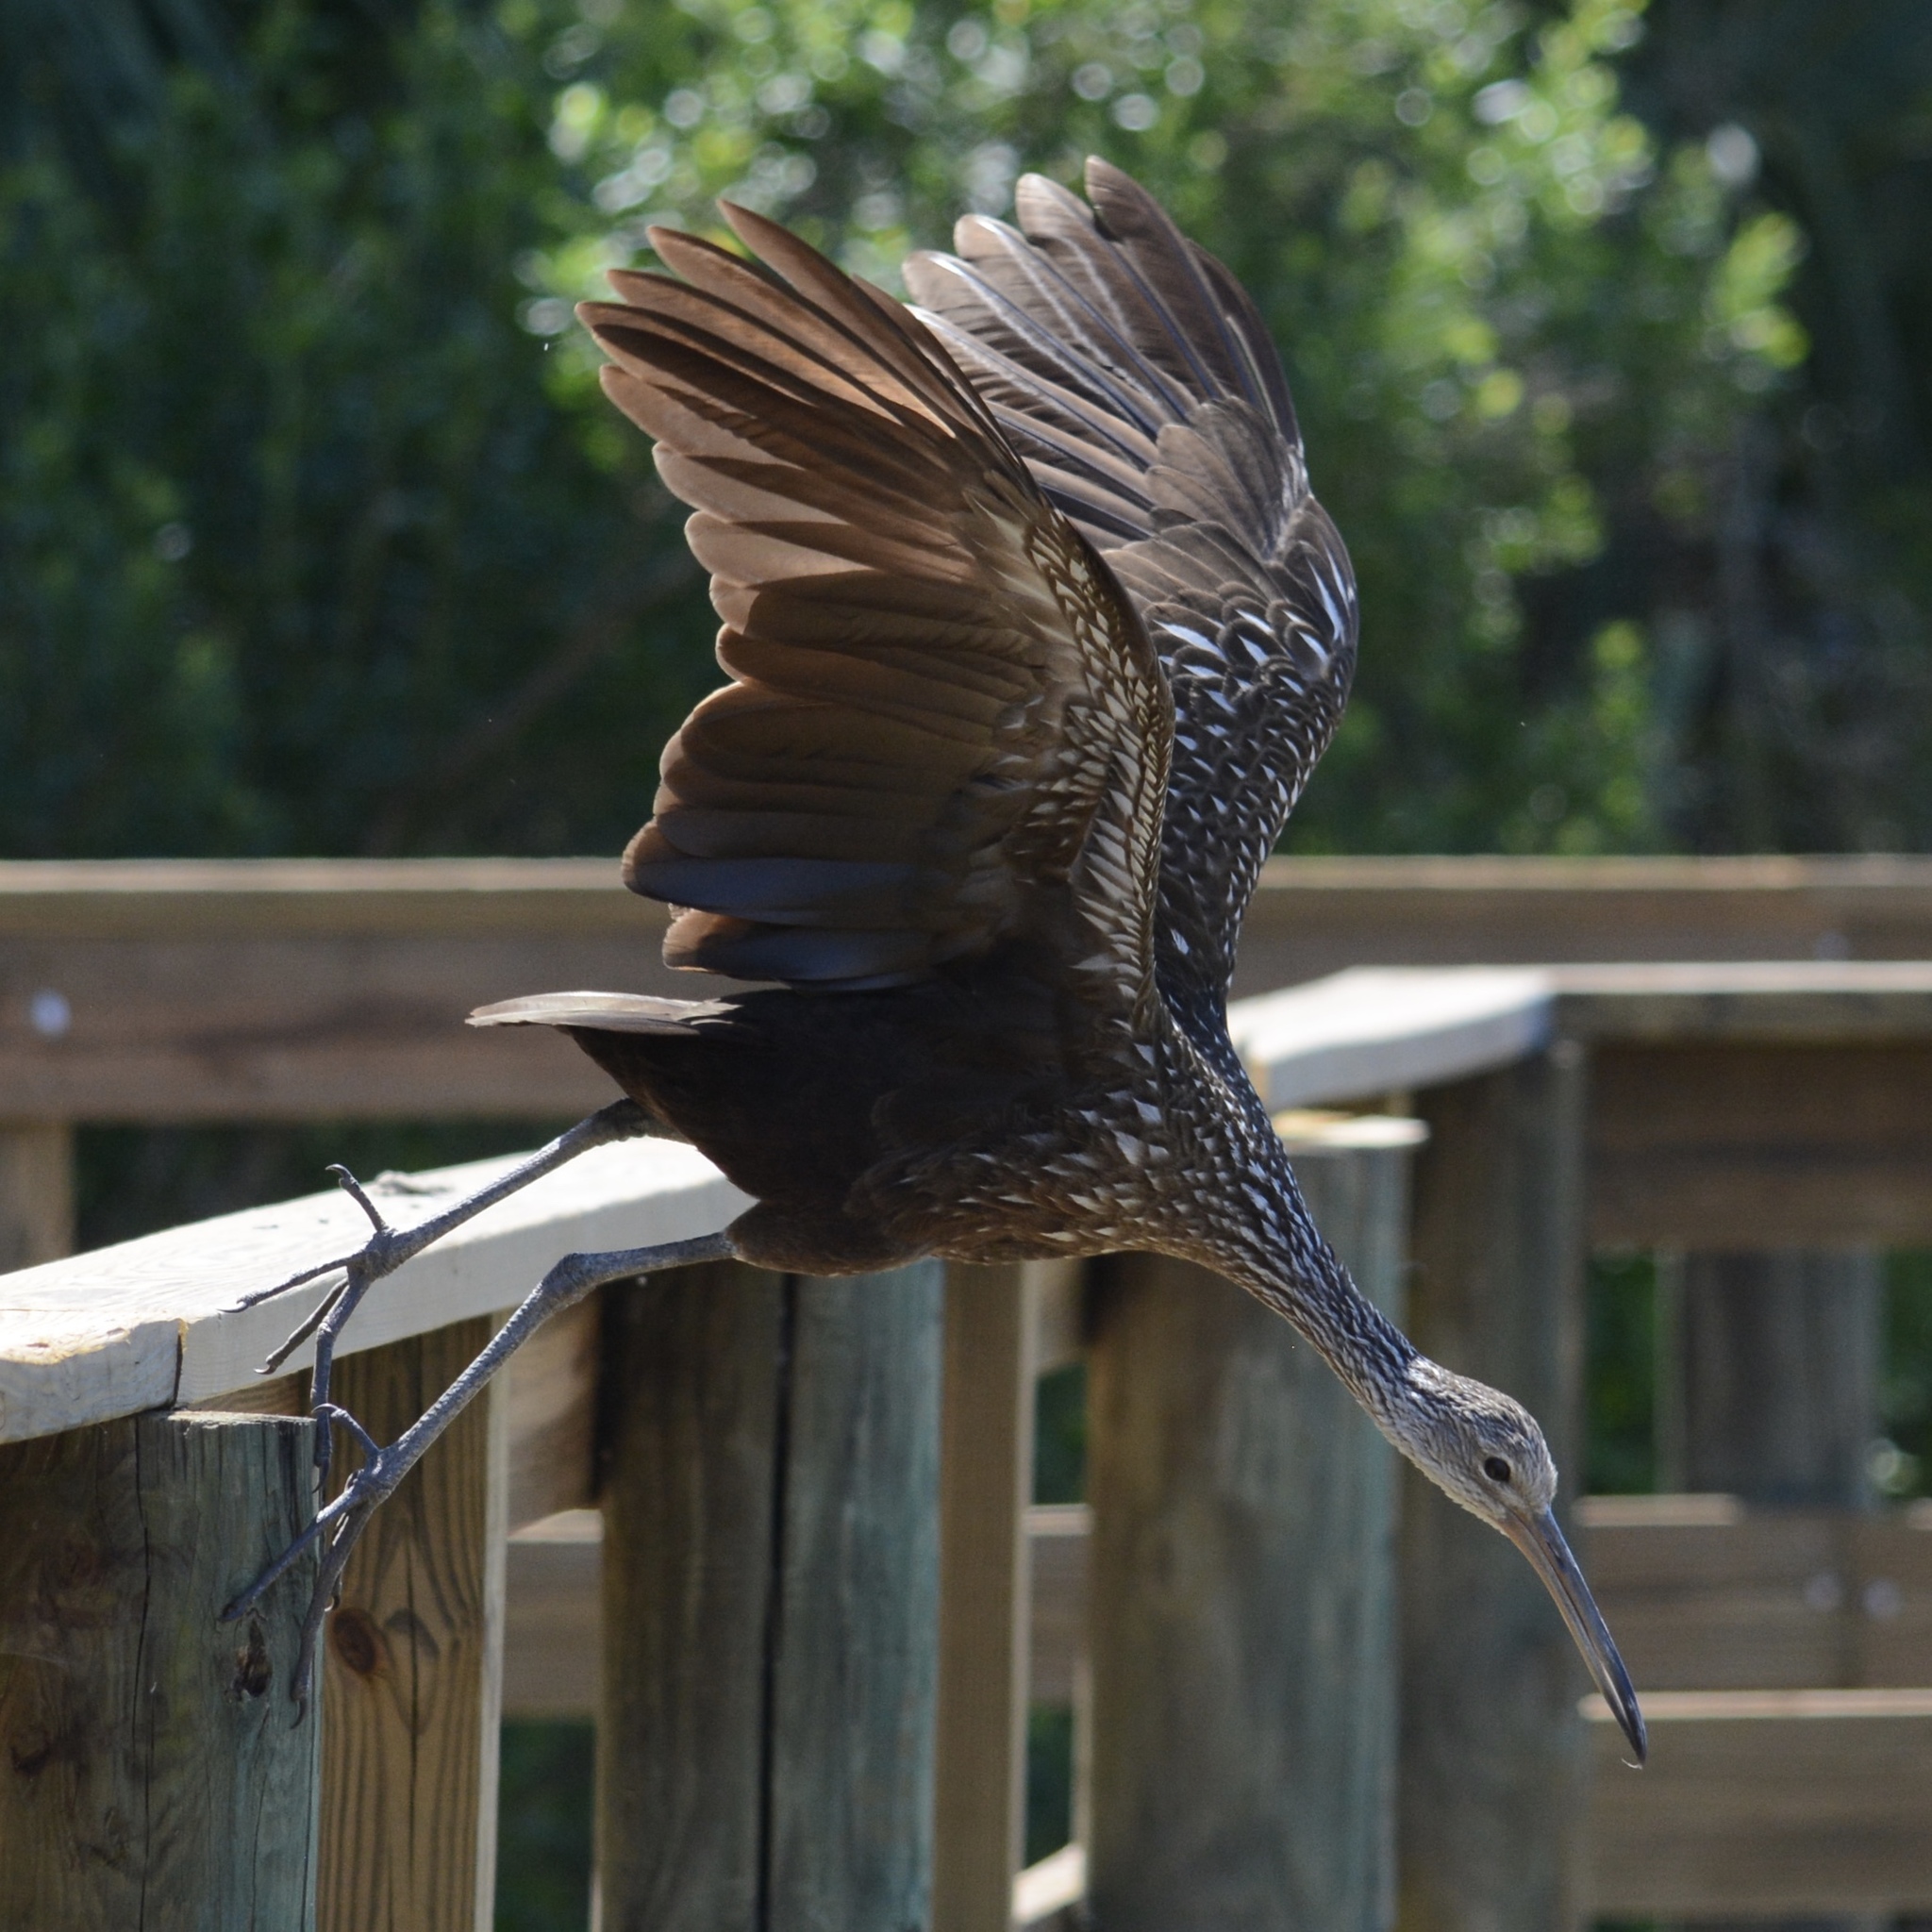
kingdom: Animalia
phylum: Chordata
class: Aves
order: Gruiformes
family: Aramidae
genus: Aramus
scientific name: Aramus guarauna
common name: Limpkin
